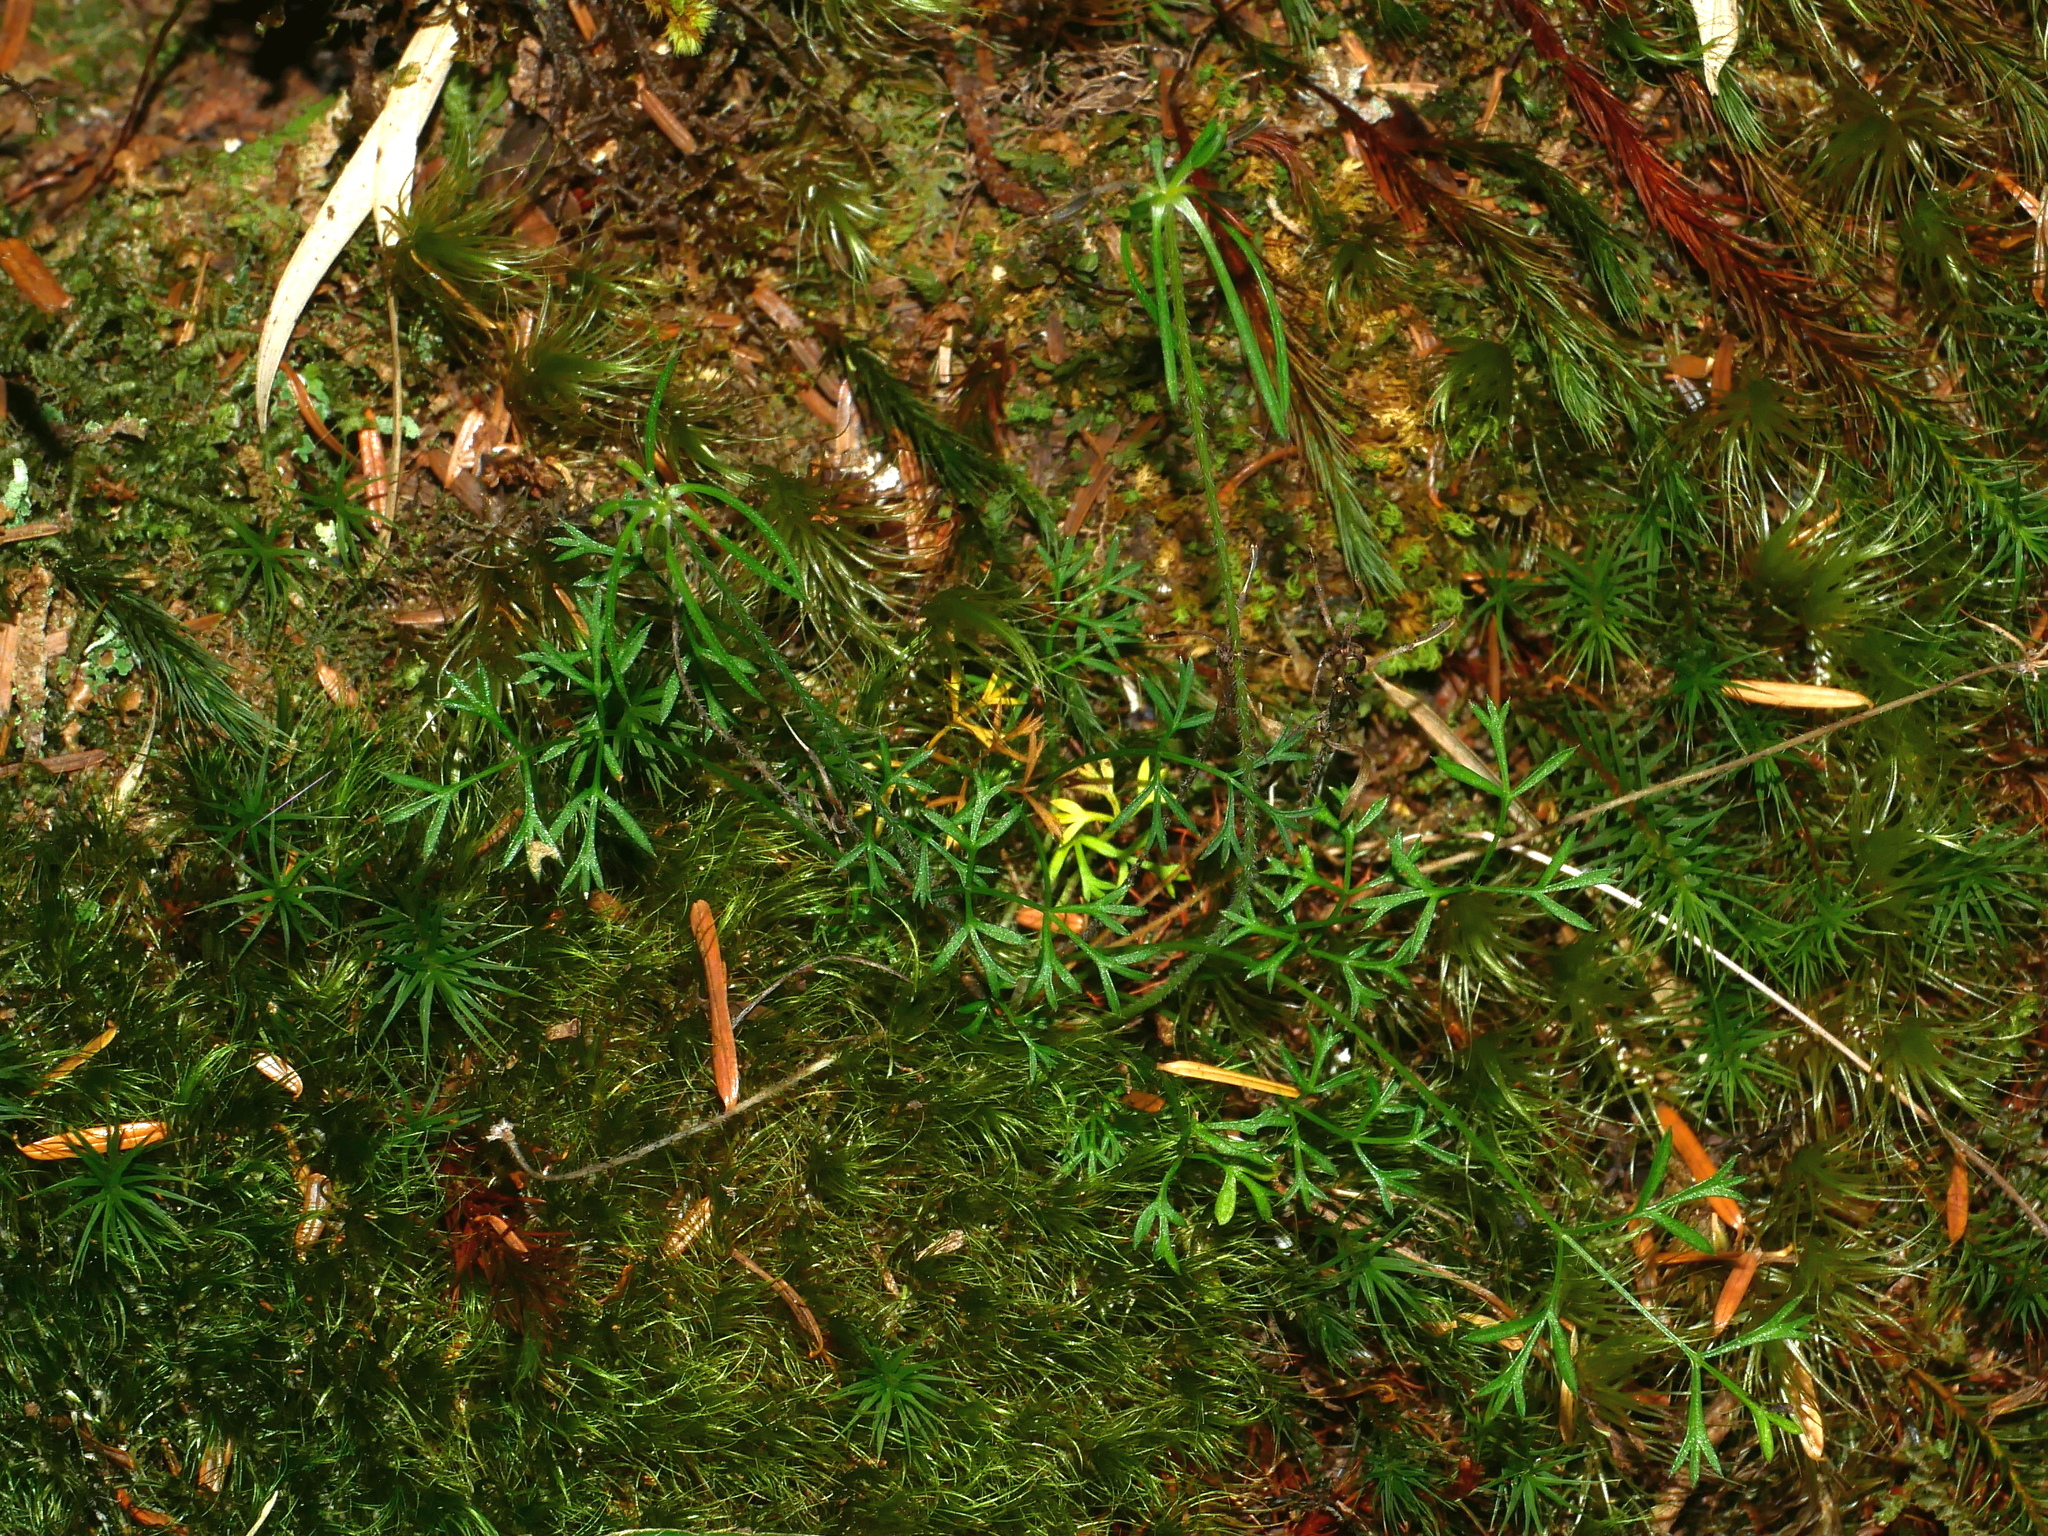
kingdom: Plantae
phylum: Tracheophyta
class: Magnoliopsida
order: Apiales
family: Apiaceae
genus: Chaerophyllum
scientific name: Chaerophyllum involucratum
